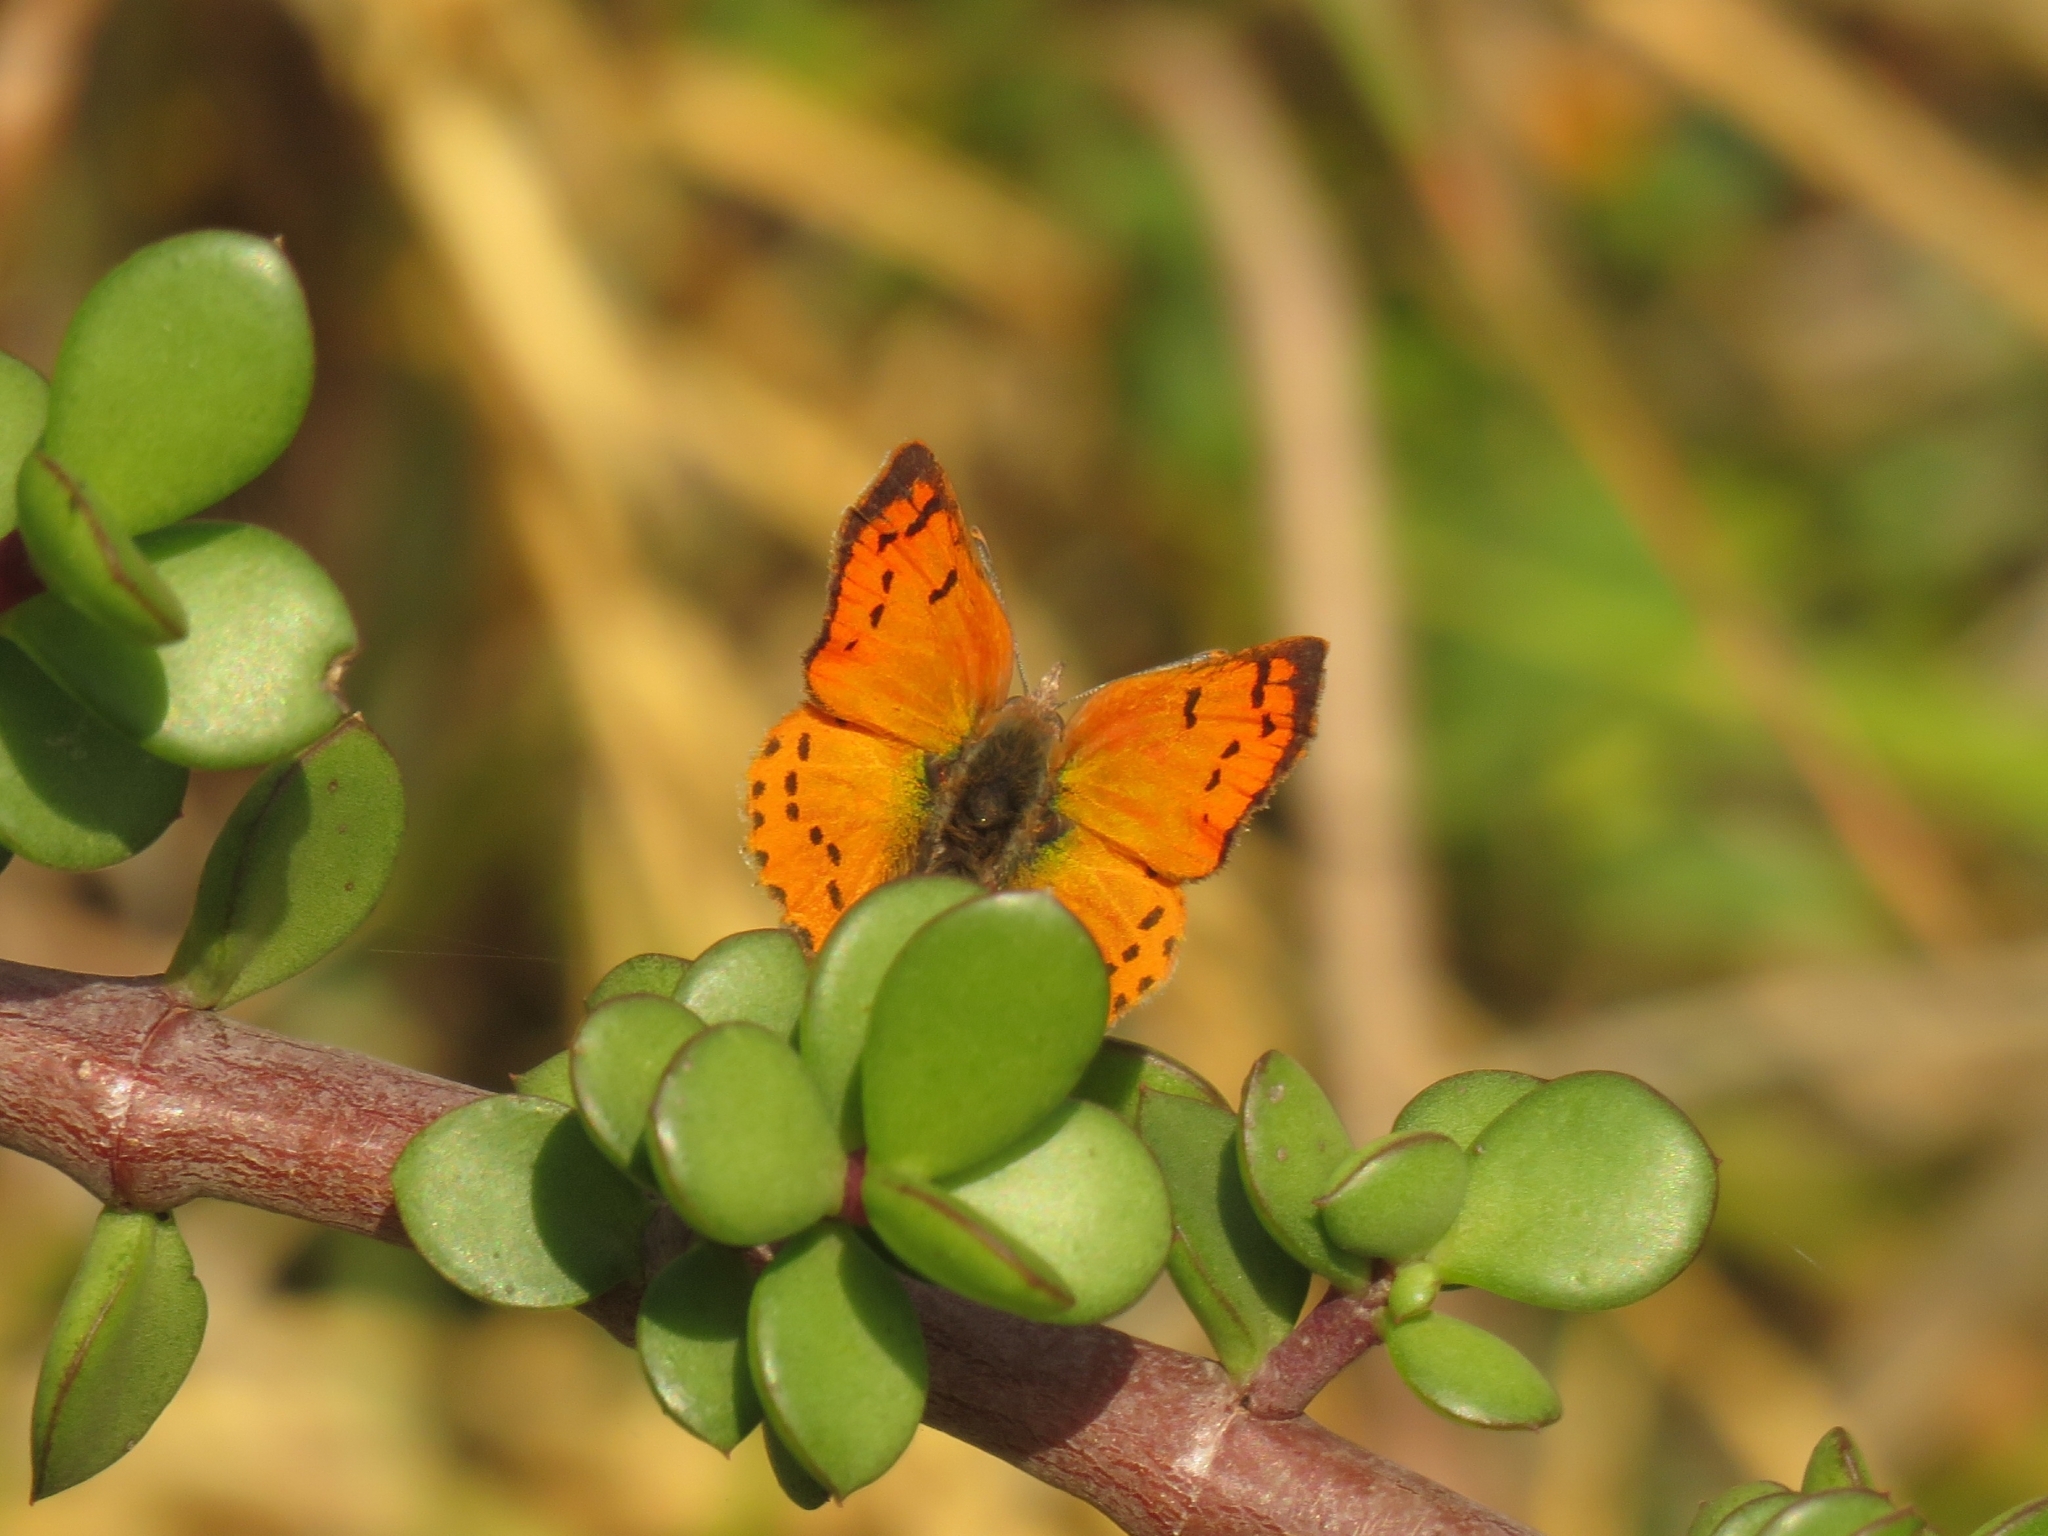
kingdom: Animalia
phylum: Arthropoda
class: Insecta
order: Lepidoptera
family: Lycaenidae
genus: Zeritis
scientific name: Zeritis chrysaor
